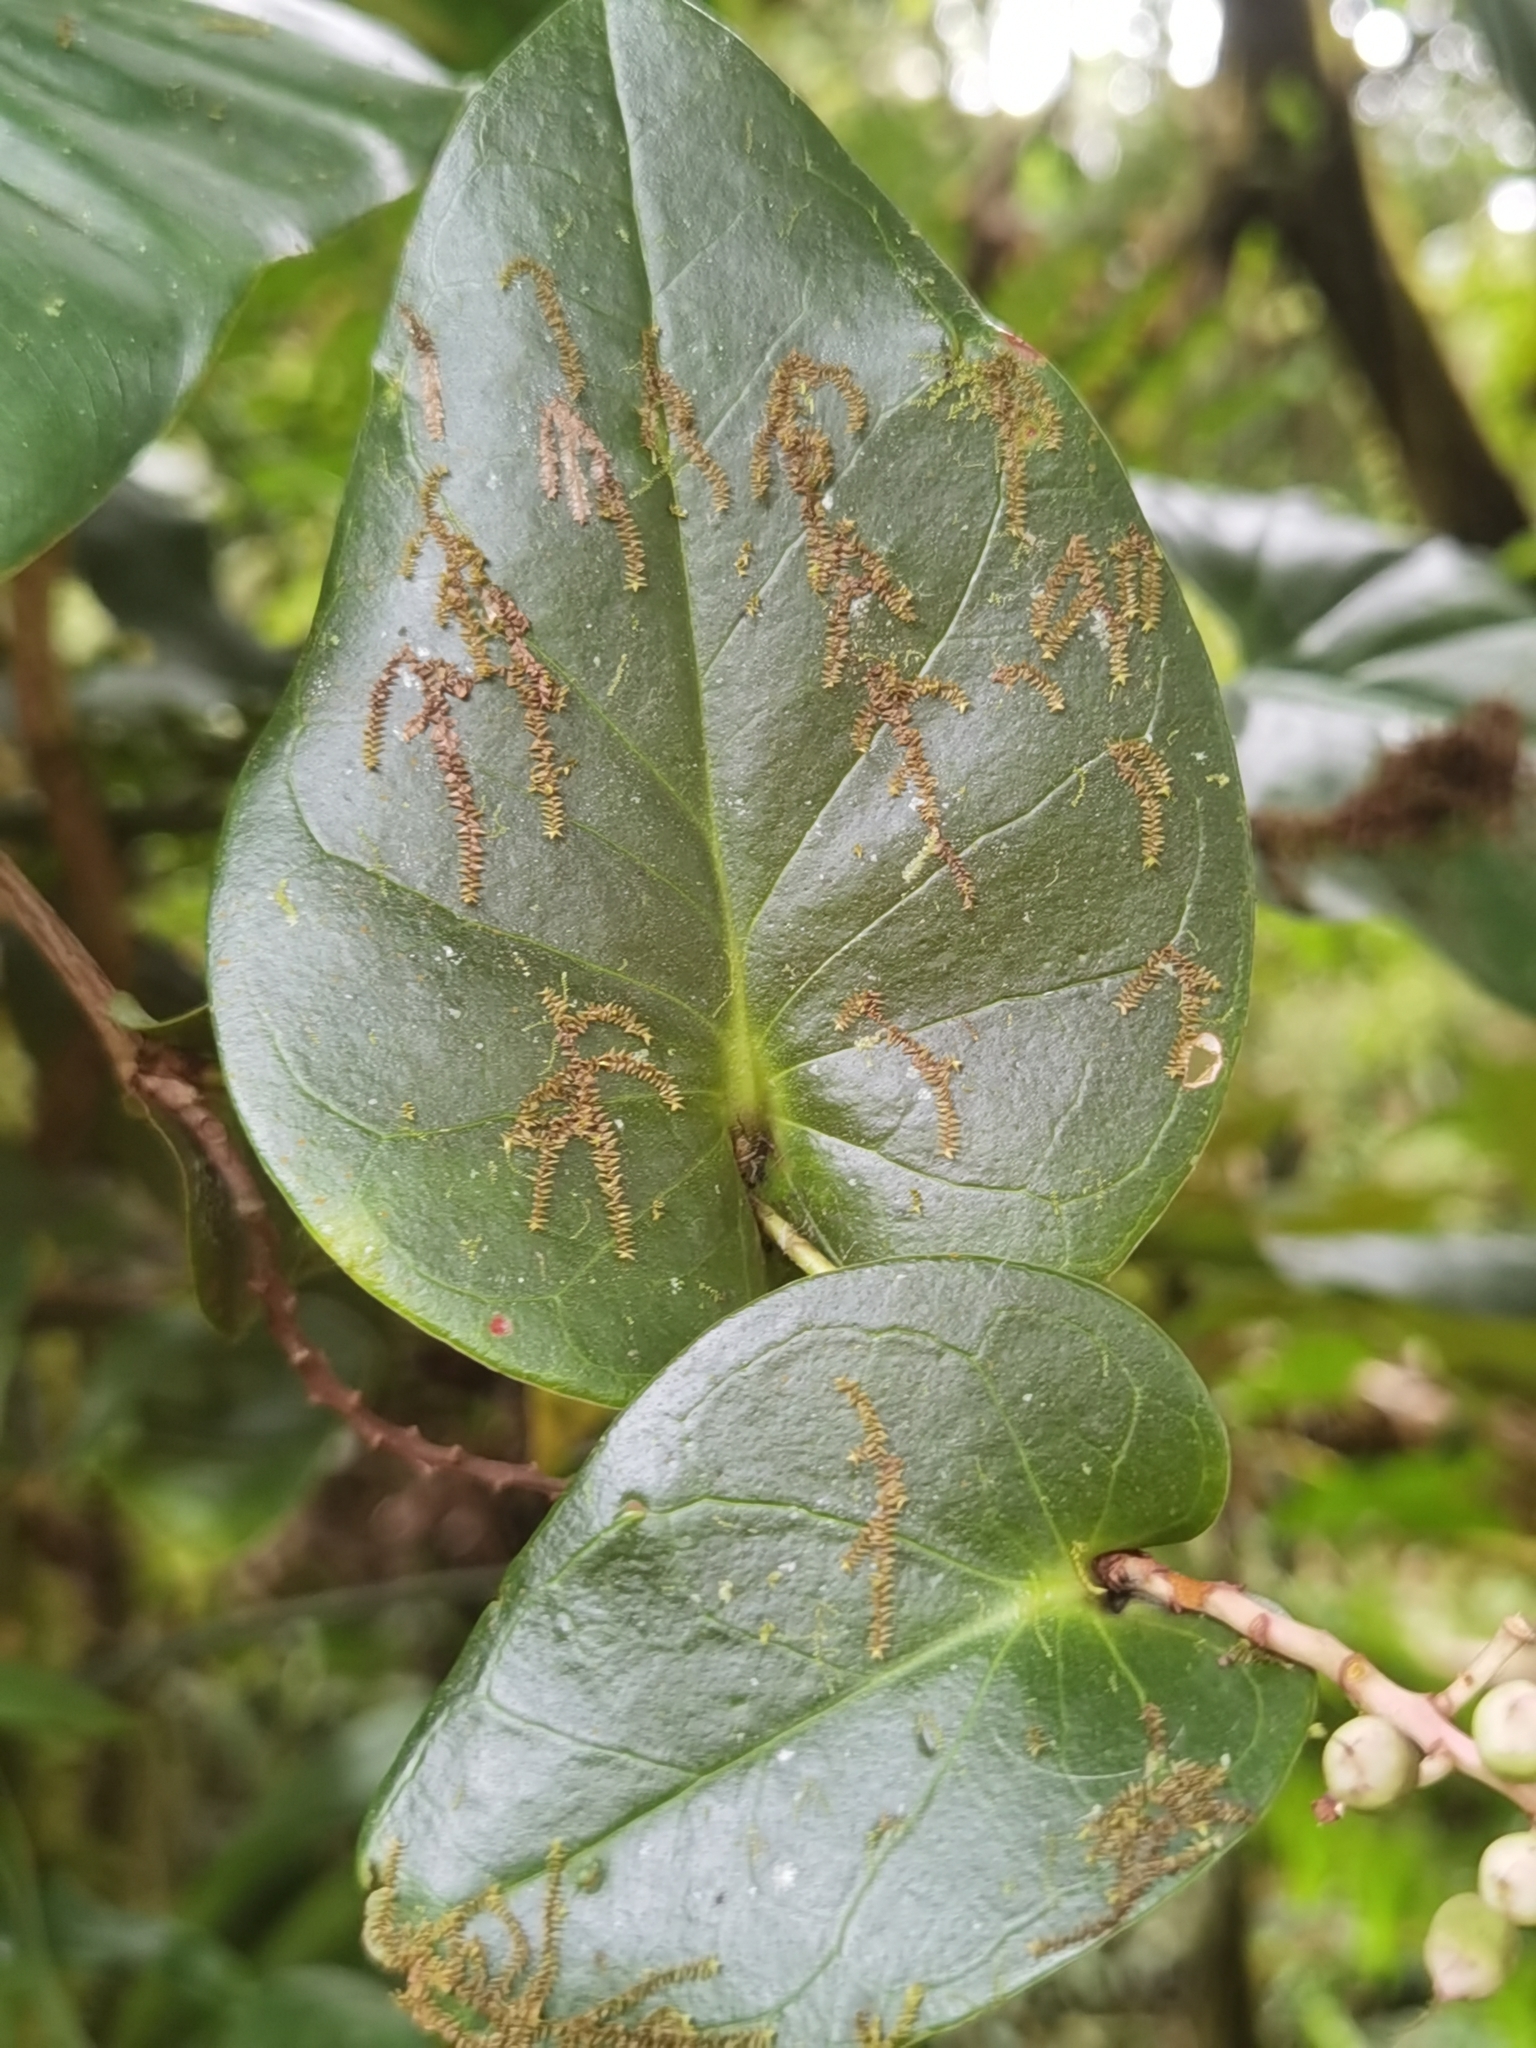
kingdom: Plantae
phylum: Tracheophyta
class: Magnoliopsida
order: Ericales
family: Ericaceae
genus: Cavendishia
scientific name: Cavendishia complectens
